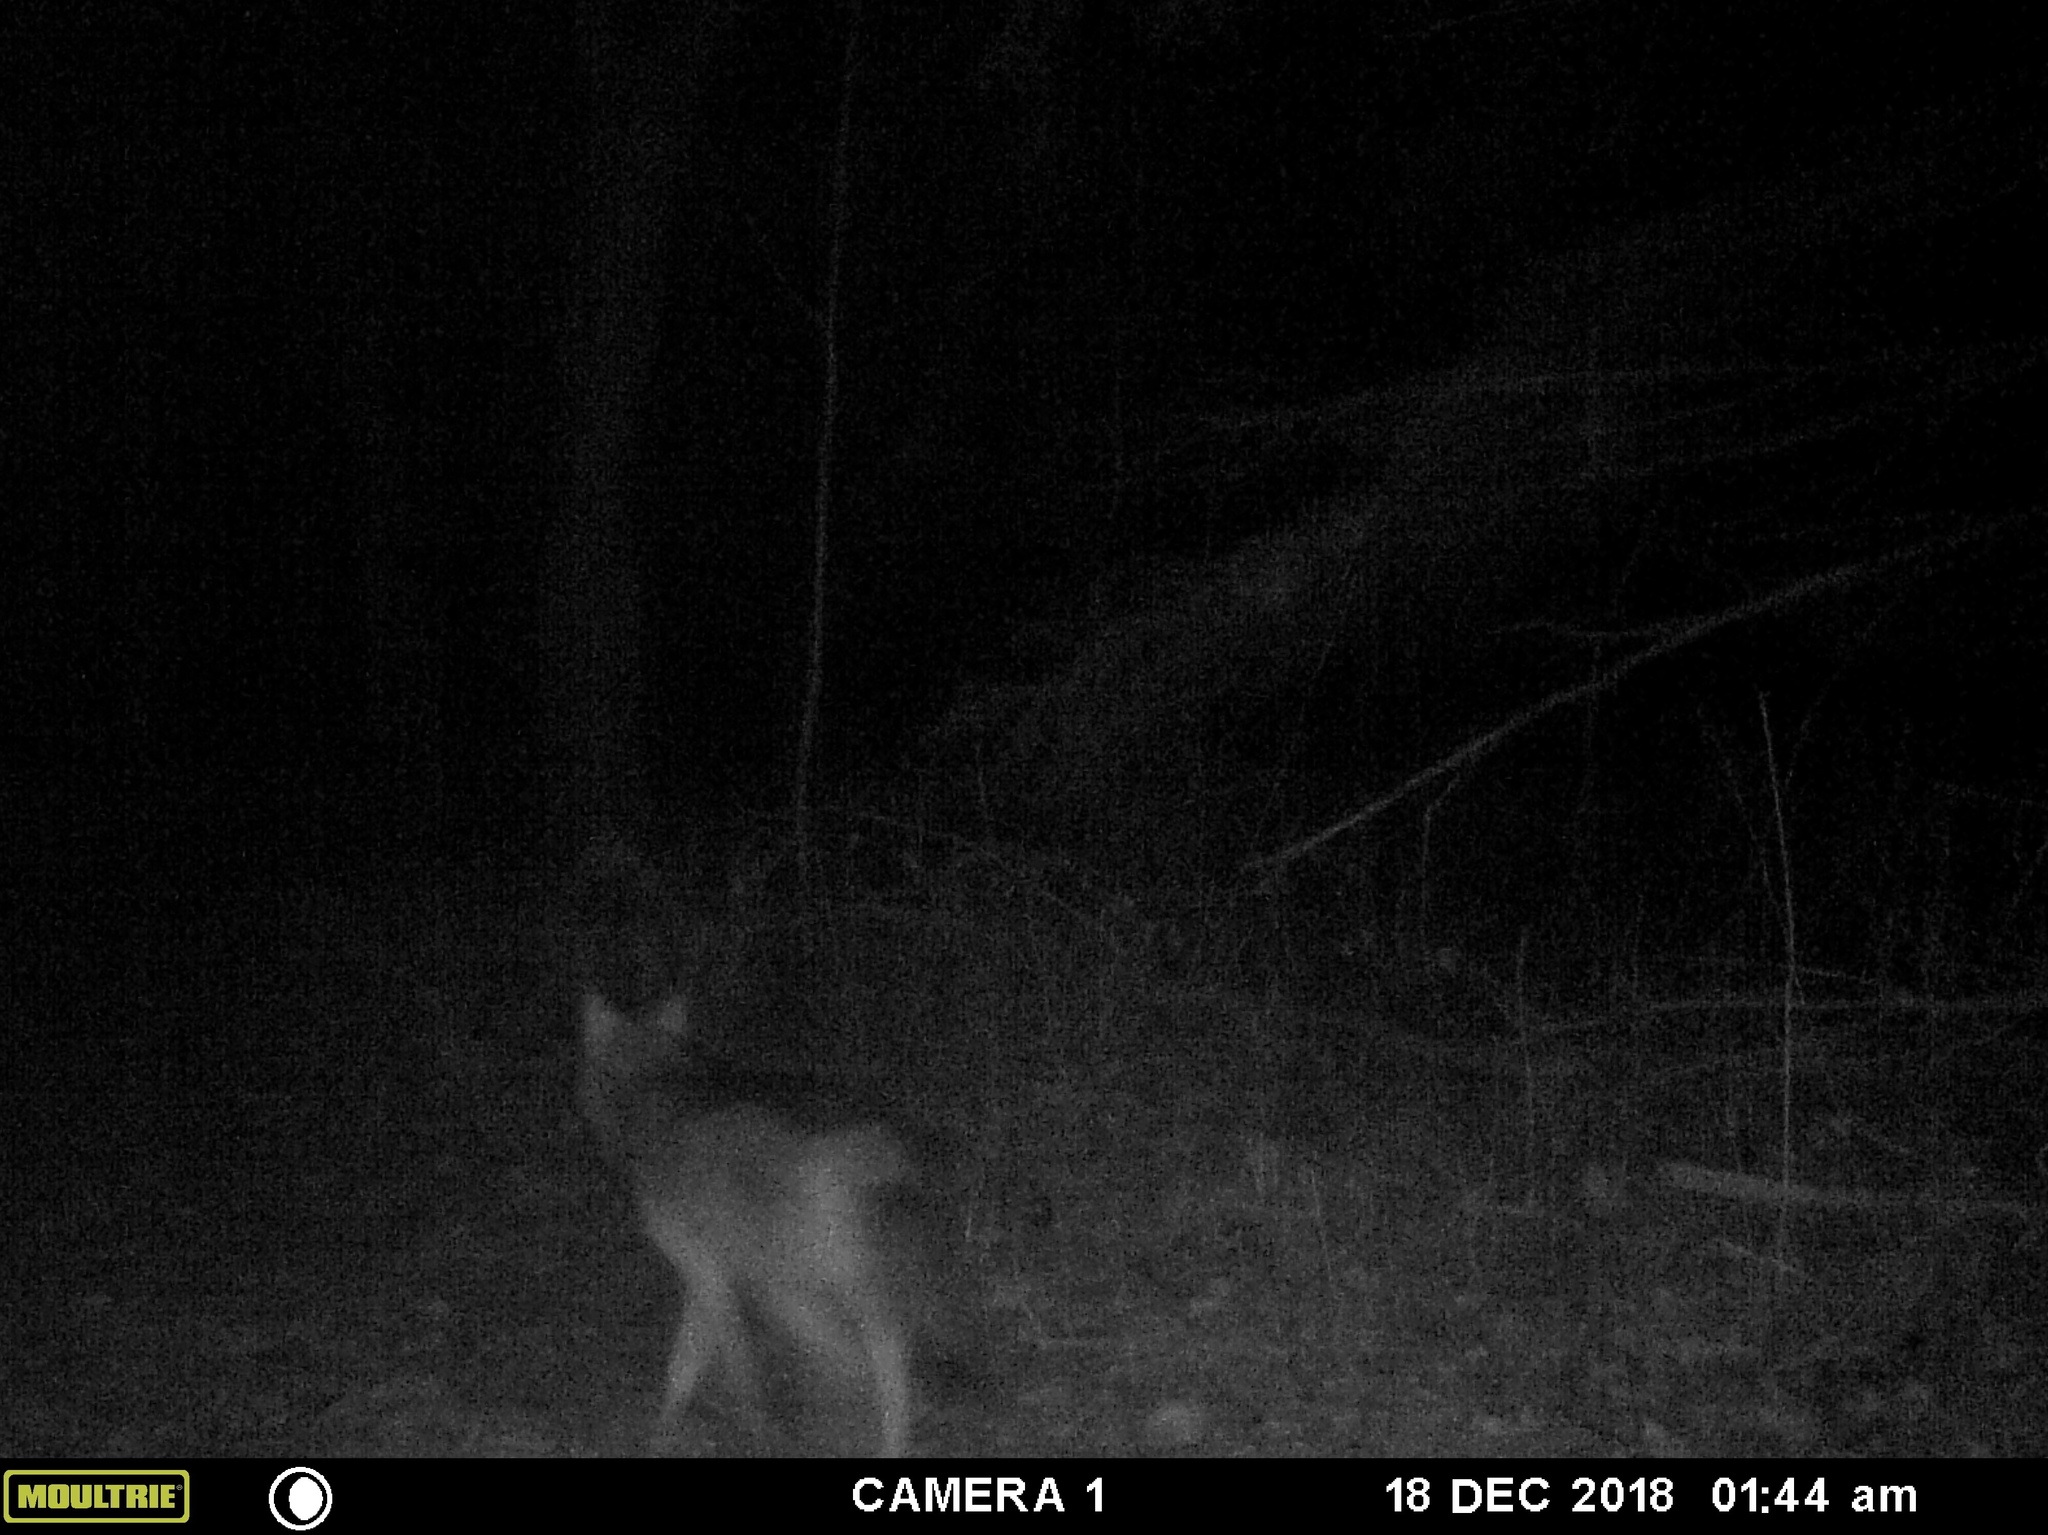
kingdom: Animalia
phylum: Chordata
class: Mammalia
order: Carnivora
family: Canidae
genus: Canis
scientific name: Canis latrans
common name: Coyote
